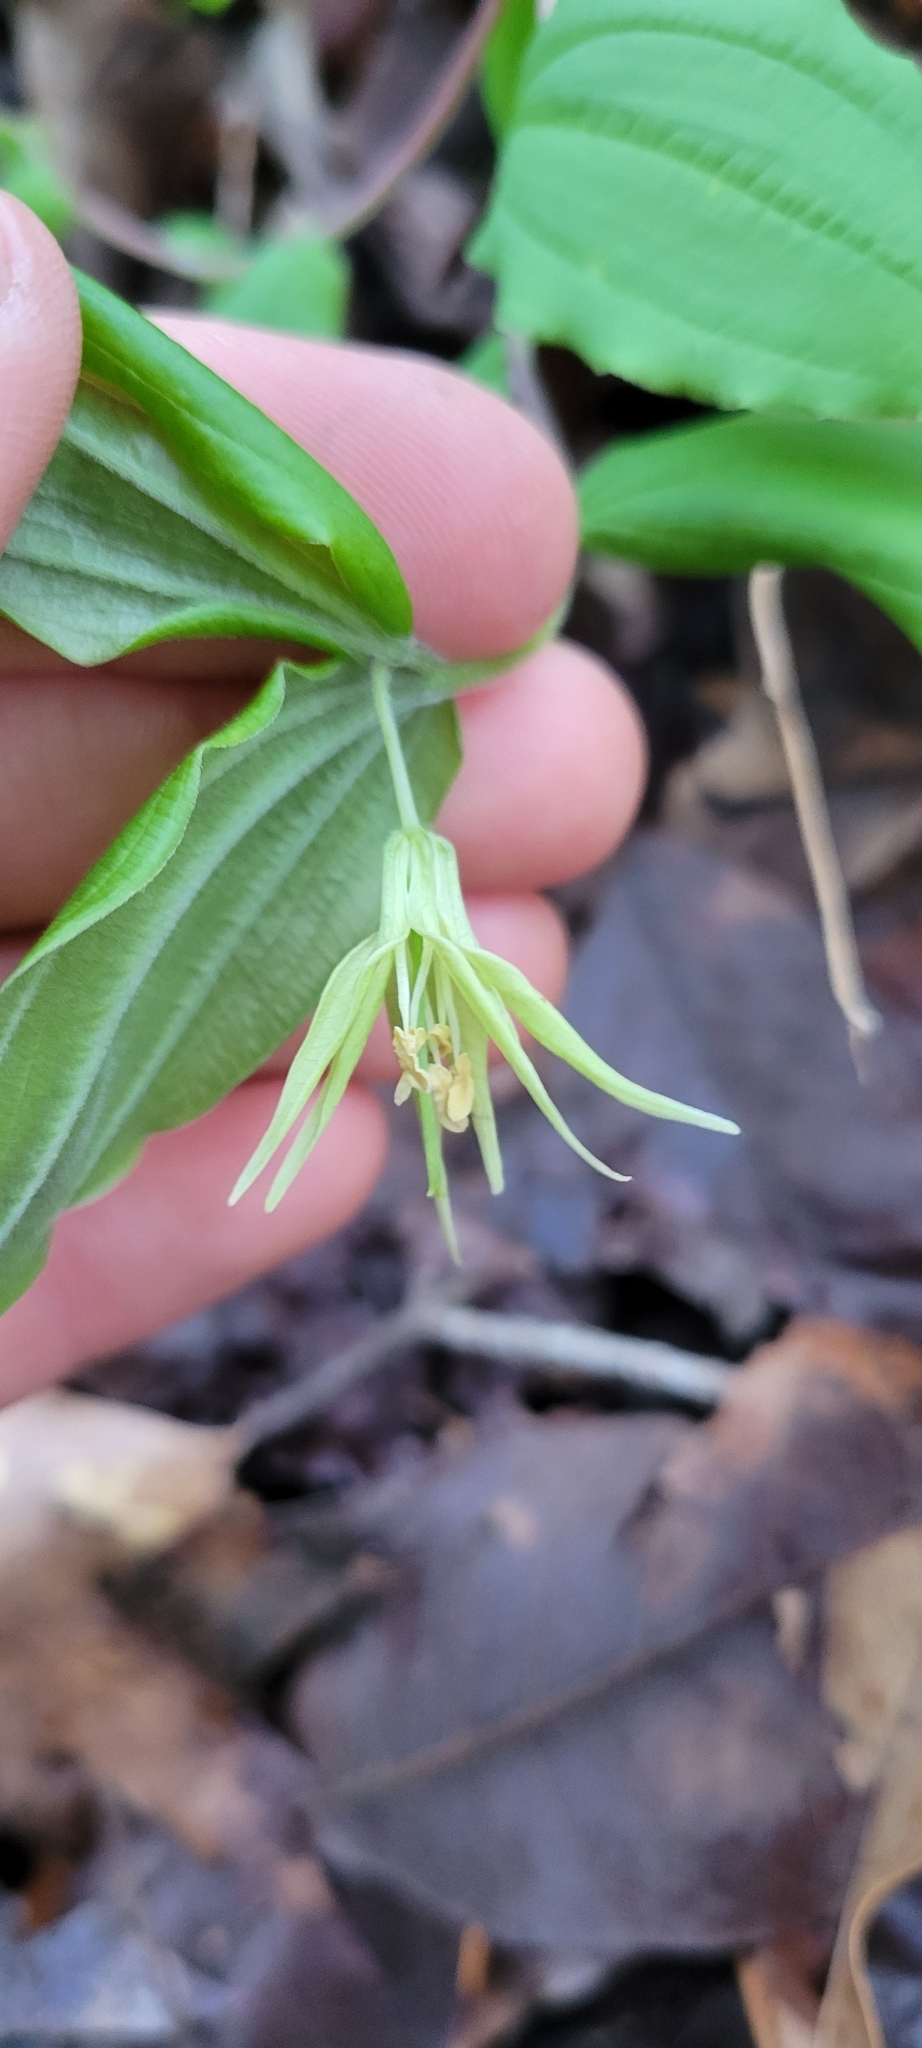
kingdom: Plantae
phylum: Tracheophyta
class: Liliopsida
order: Liliales
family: Liliaceae
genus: Prosartes
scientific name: Prosartes lanuginosa
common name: Hairy mandarin
